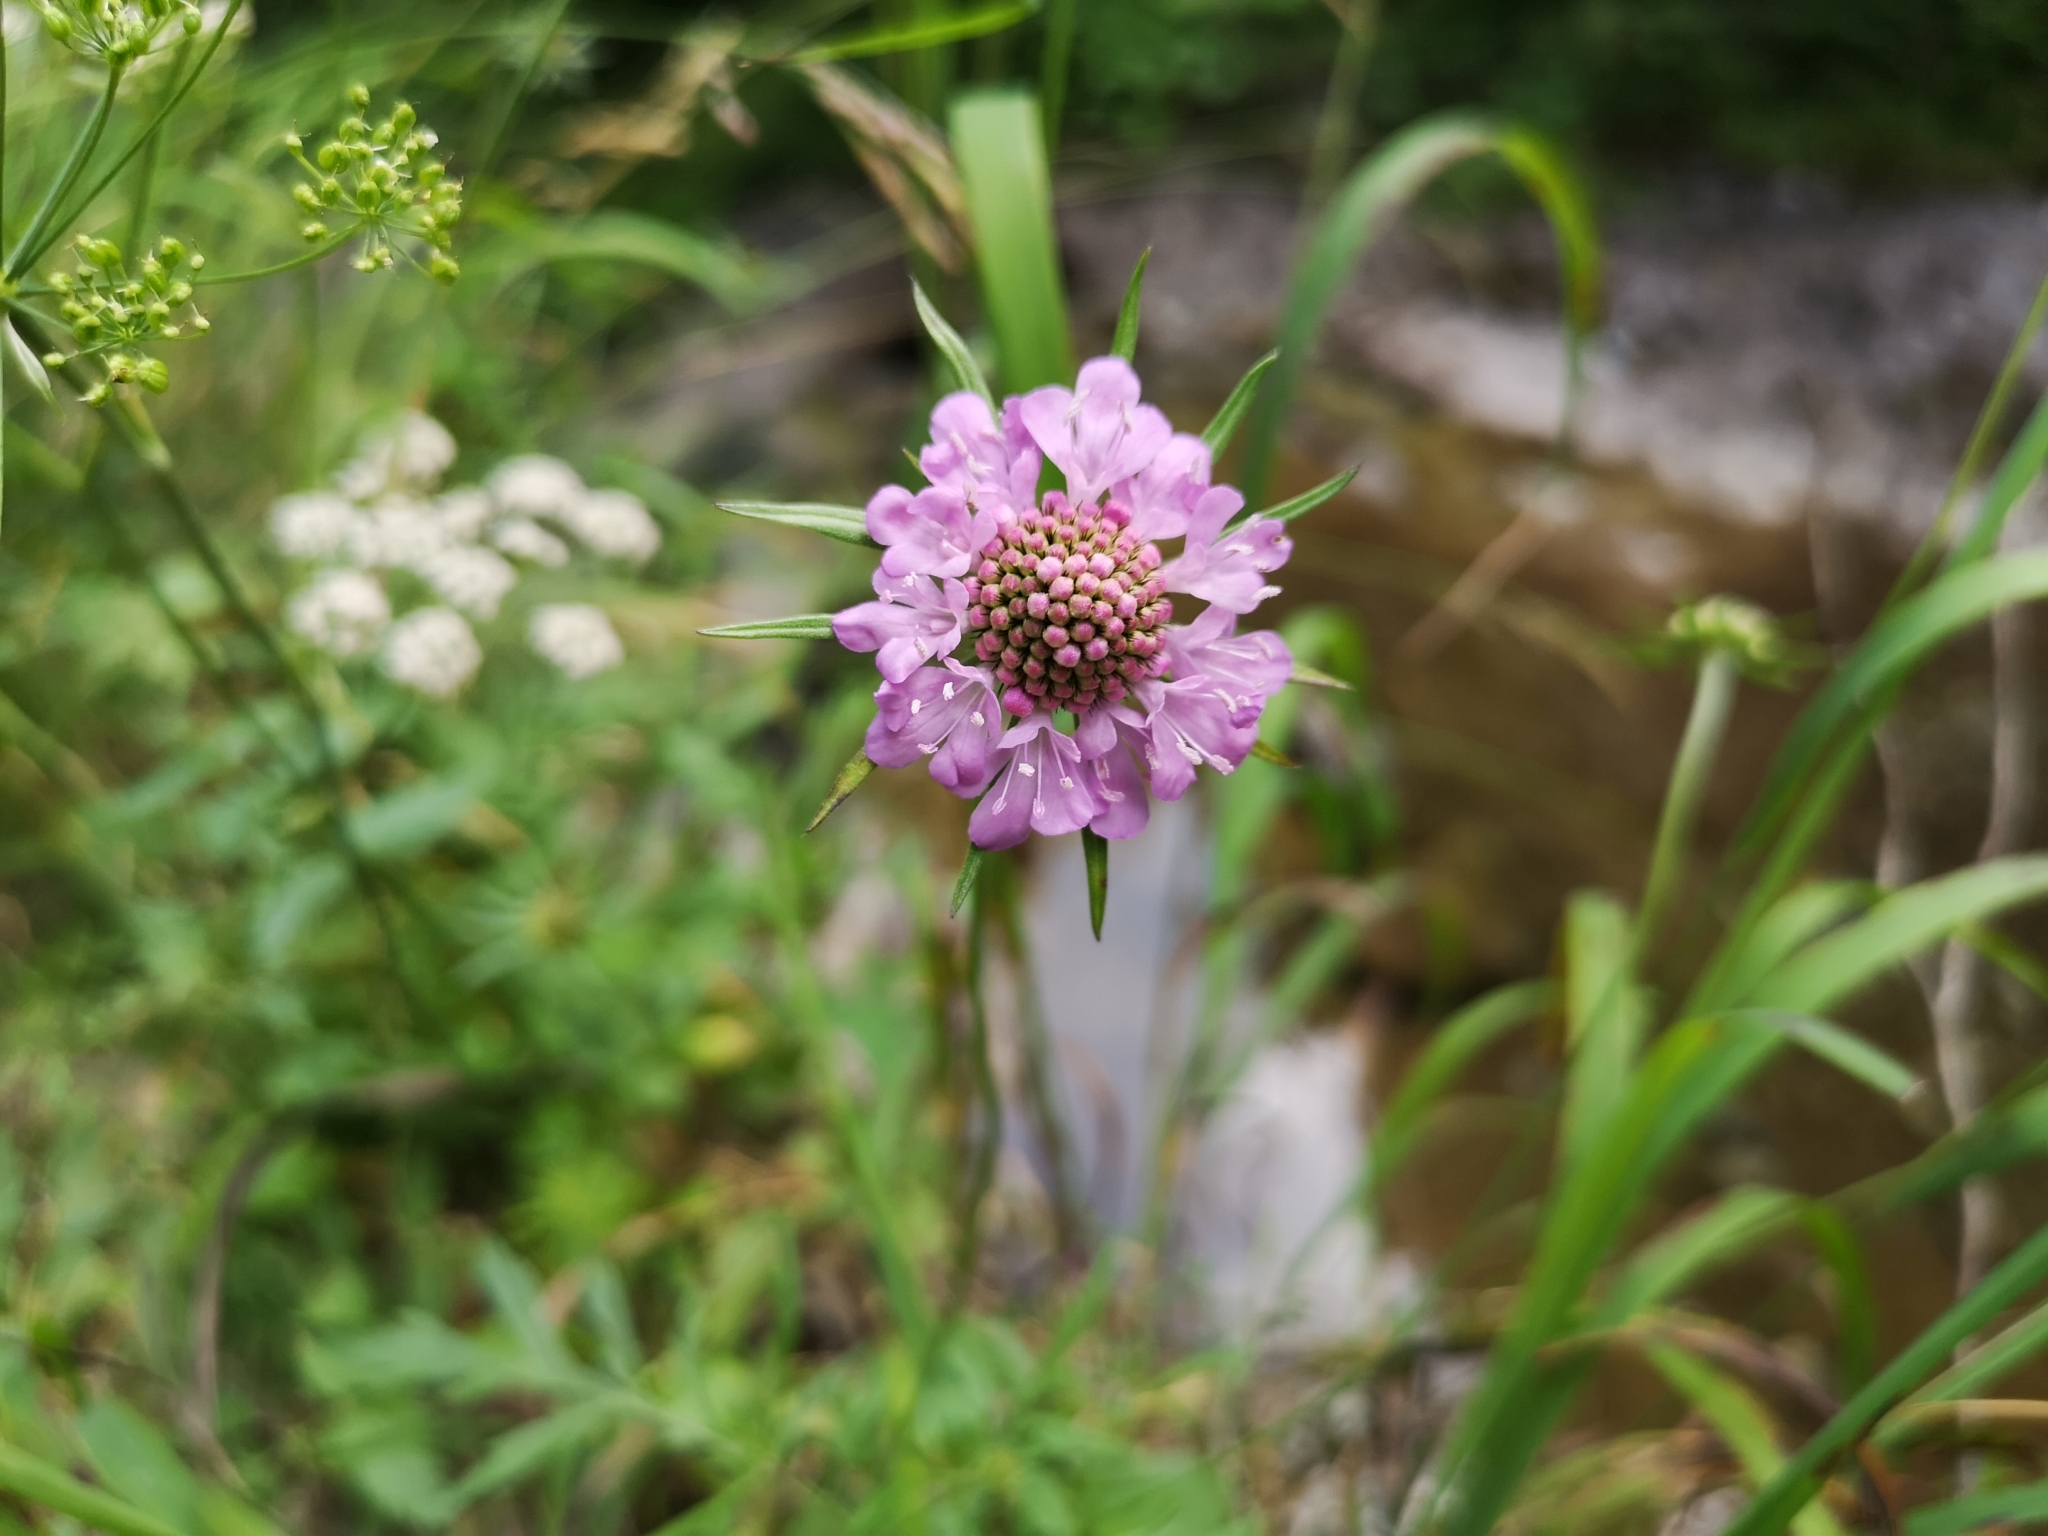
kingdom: Plantae
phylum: Tracheophyta
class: Magnoliopsida
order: Dipsacales
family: Caprifoliaceae
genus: Scabiosa
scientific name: Scabiosa lucida
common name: Shining scabious
